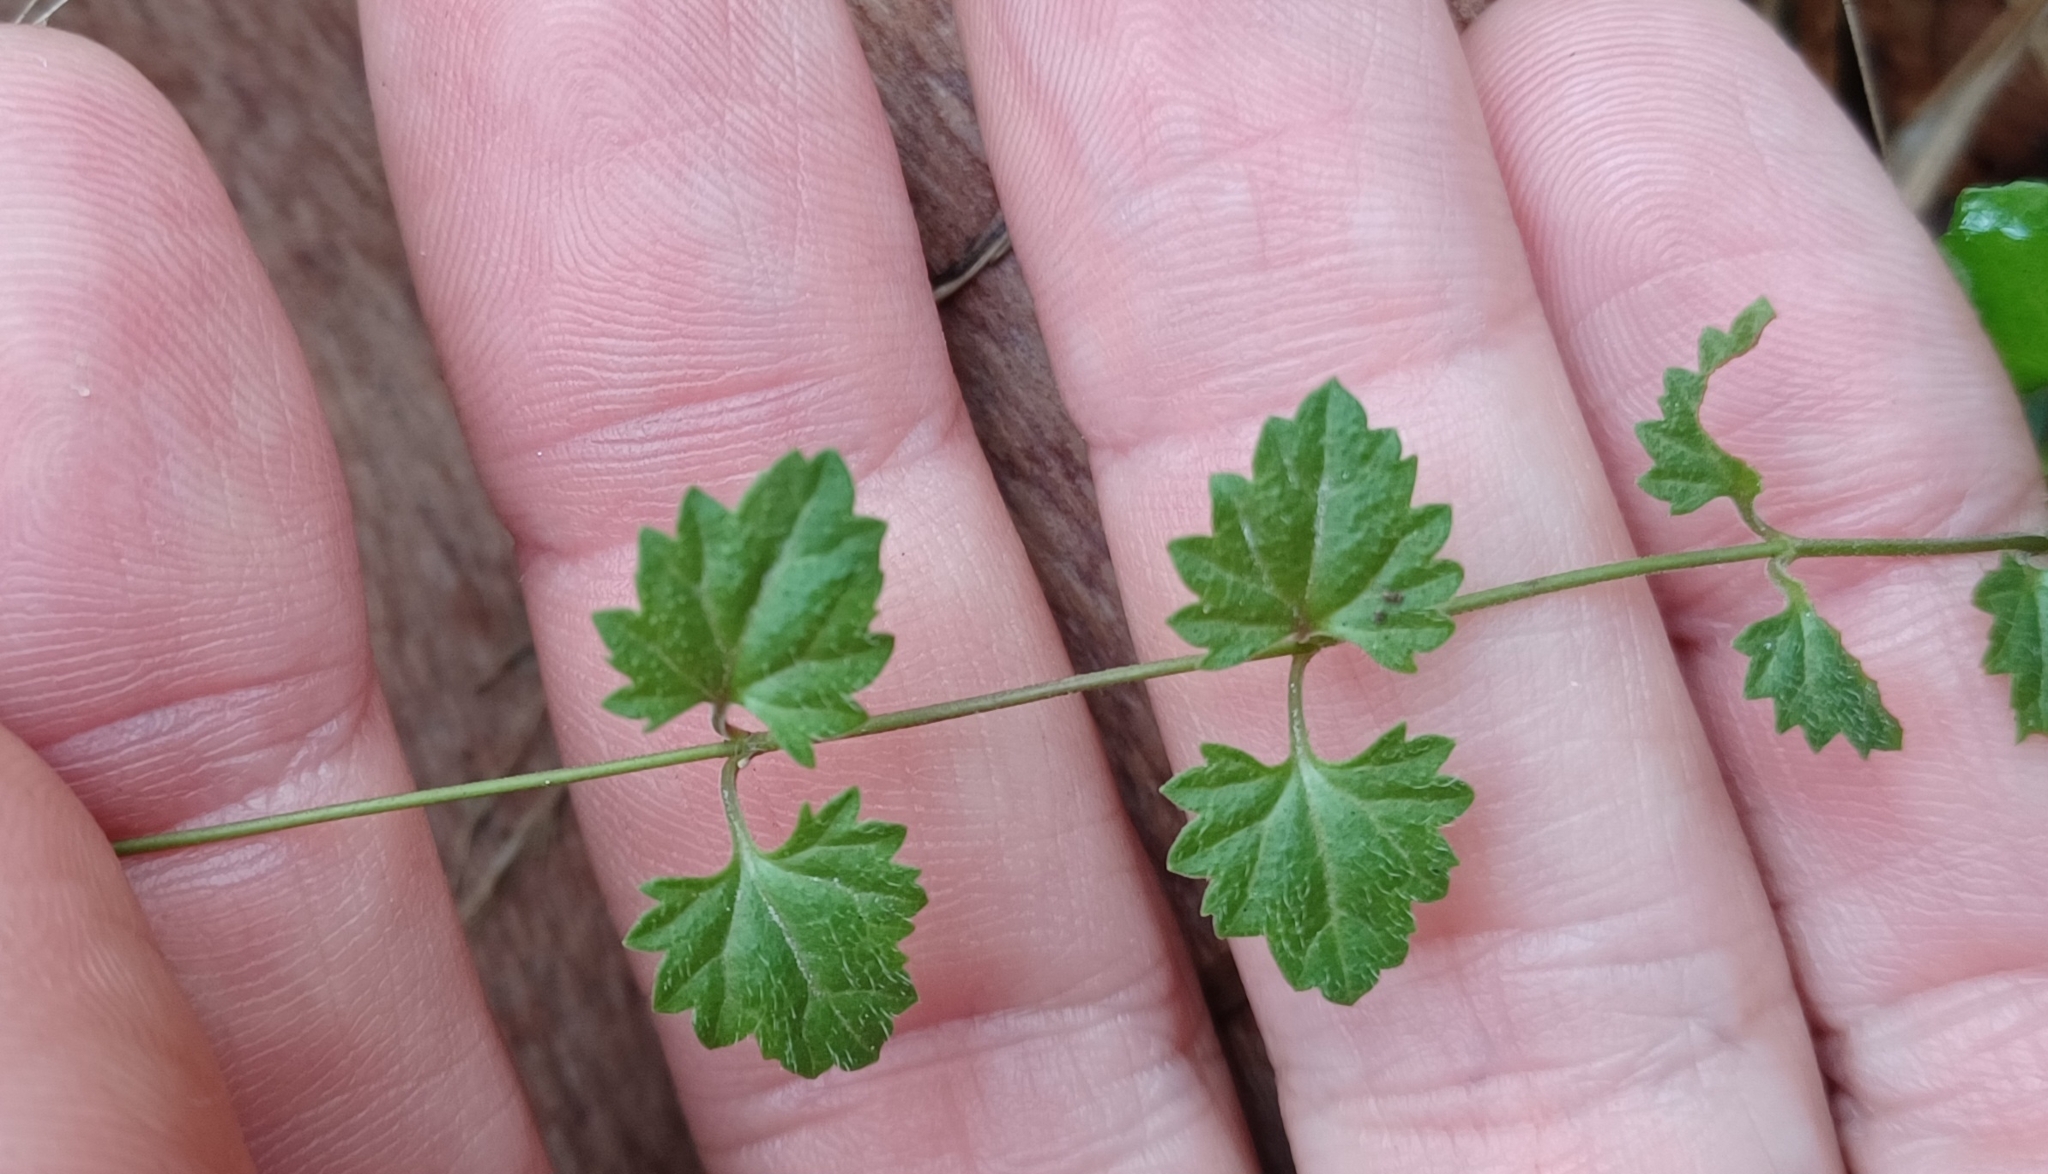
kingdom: Plantae
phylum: Tracheophyta
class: Magnoliopsida
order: Lamiales
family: Plantaginaceae
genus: Veronica
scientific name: Veronica plebeia
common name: Speedwell
